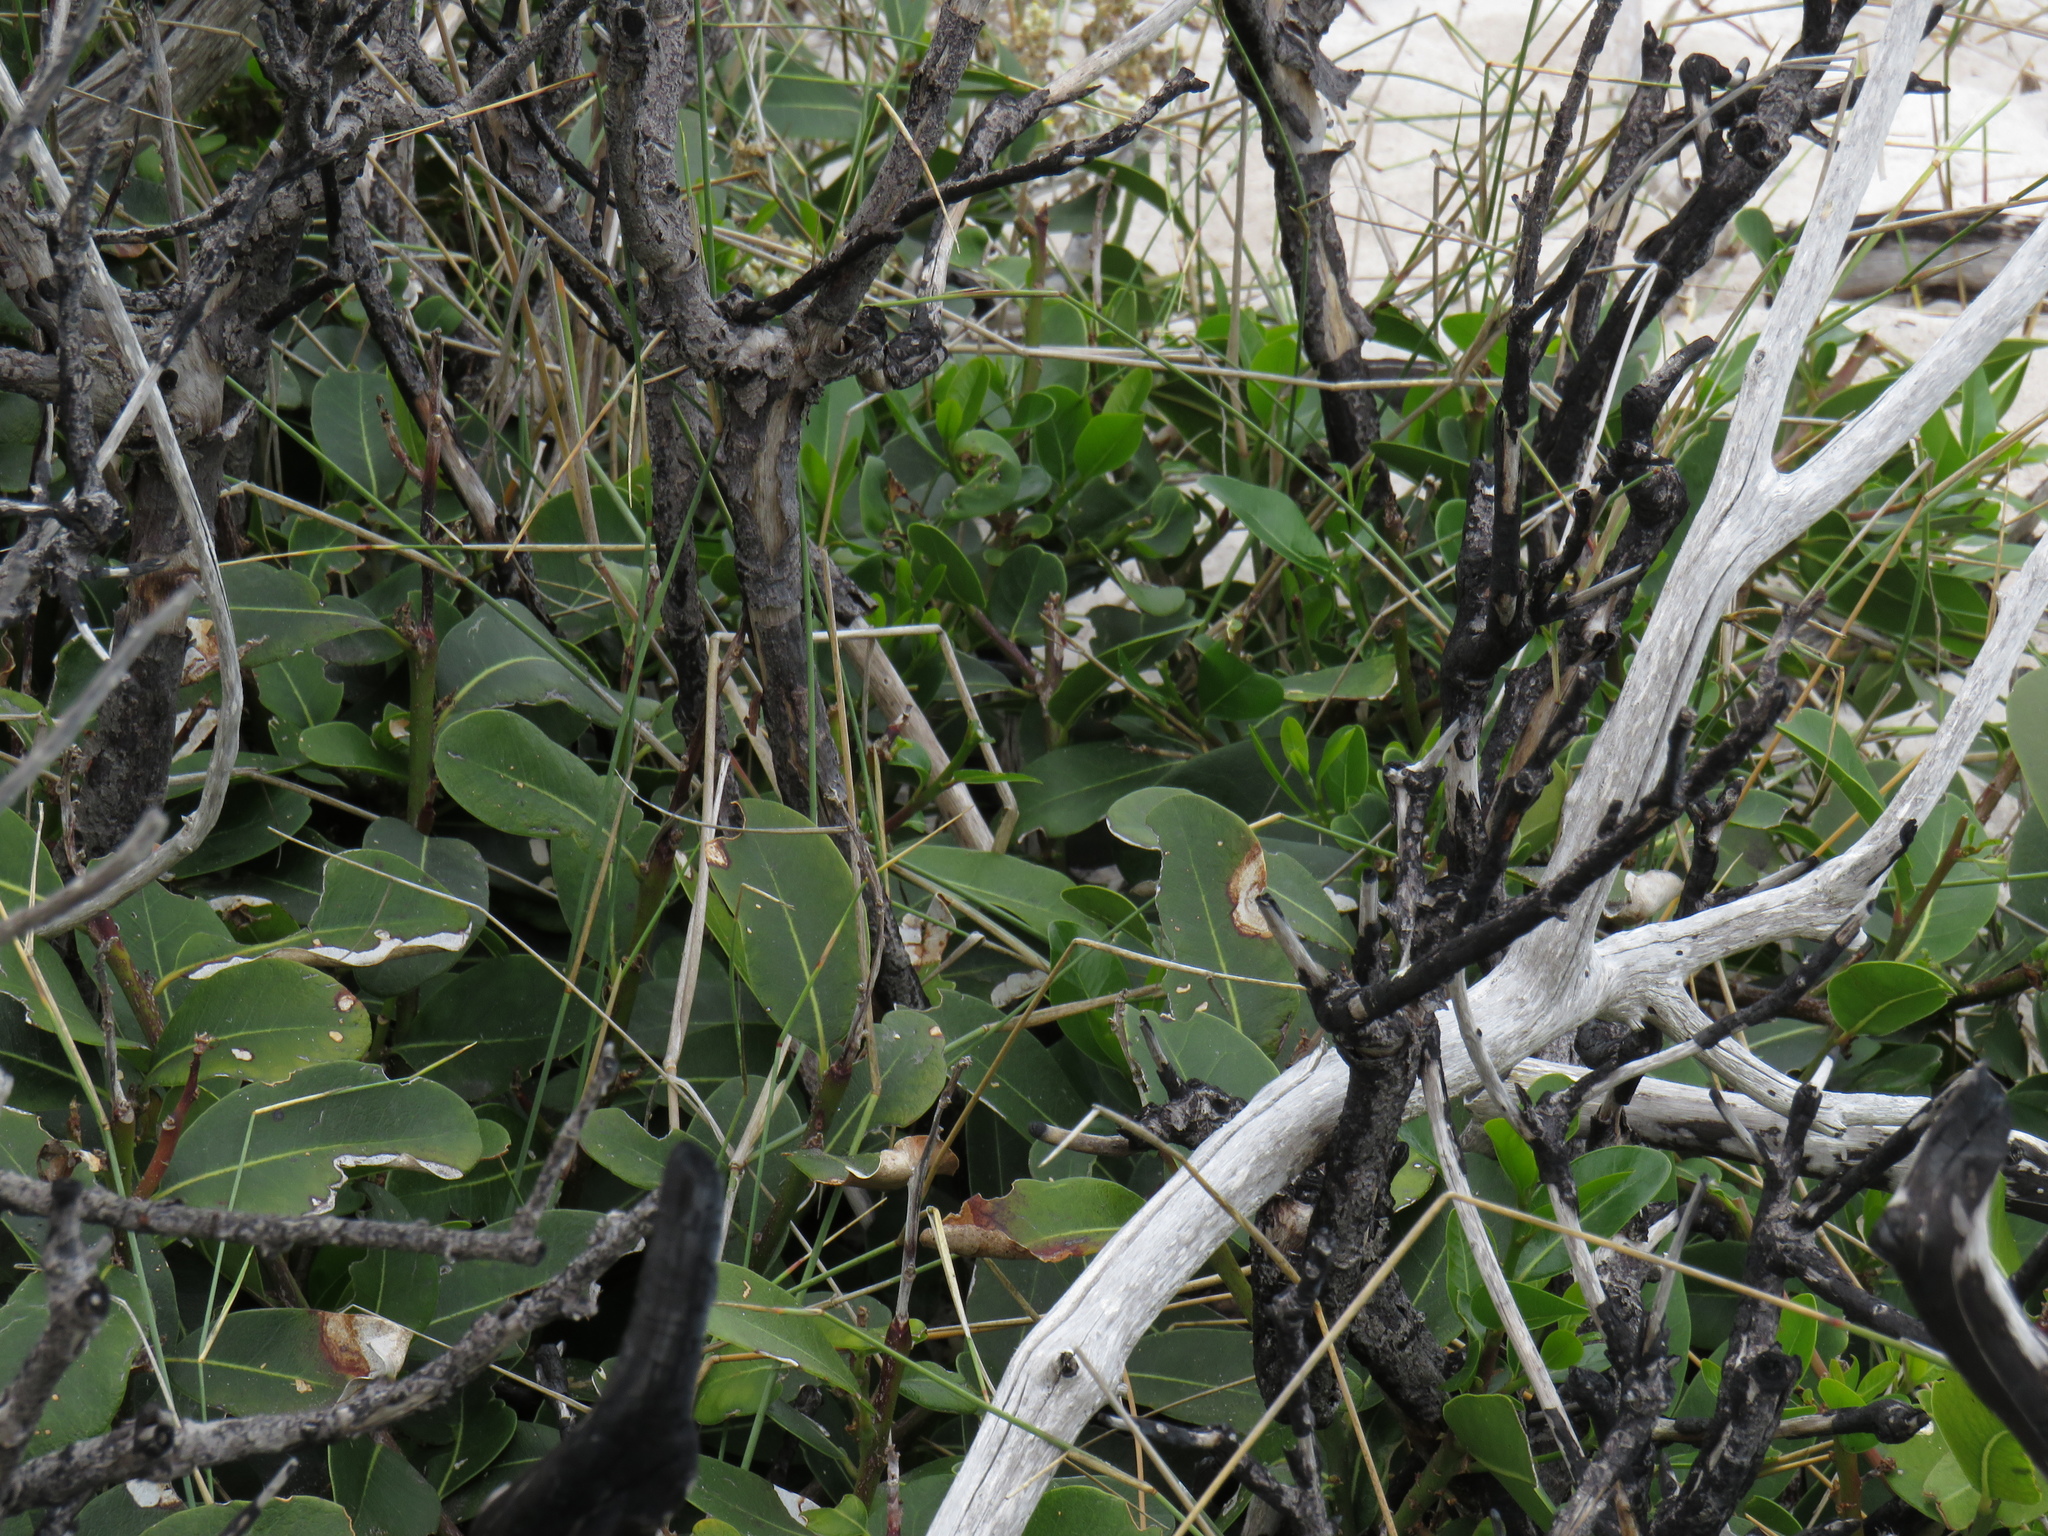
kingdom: Plantae
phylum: Tracheophyta
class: Magnoliopsida
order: Ericales
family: Sapotaceae
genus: Sideroxylon
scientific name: Sideroxylon inerme
